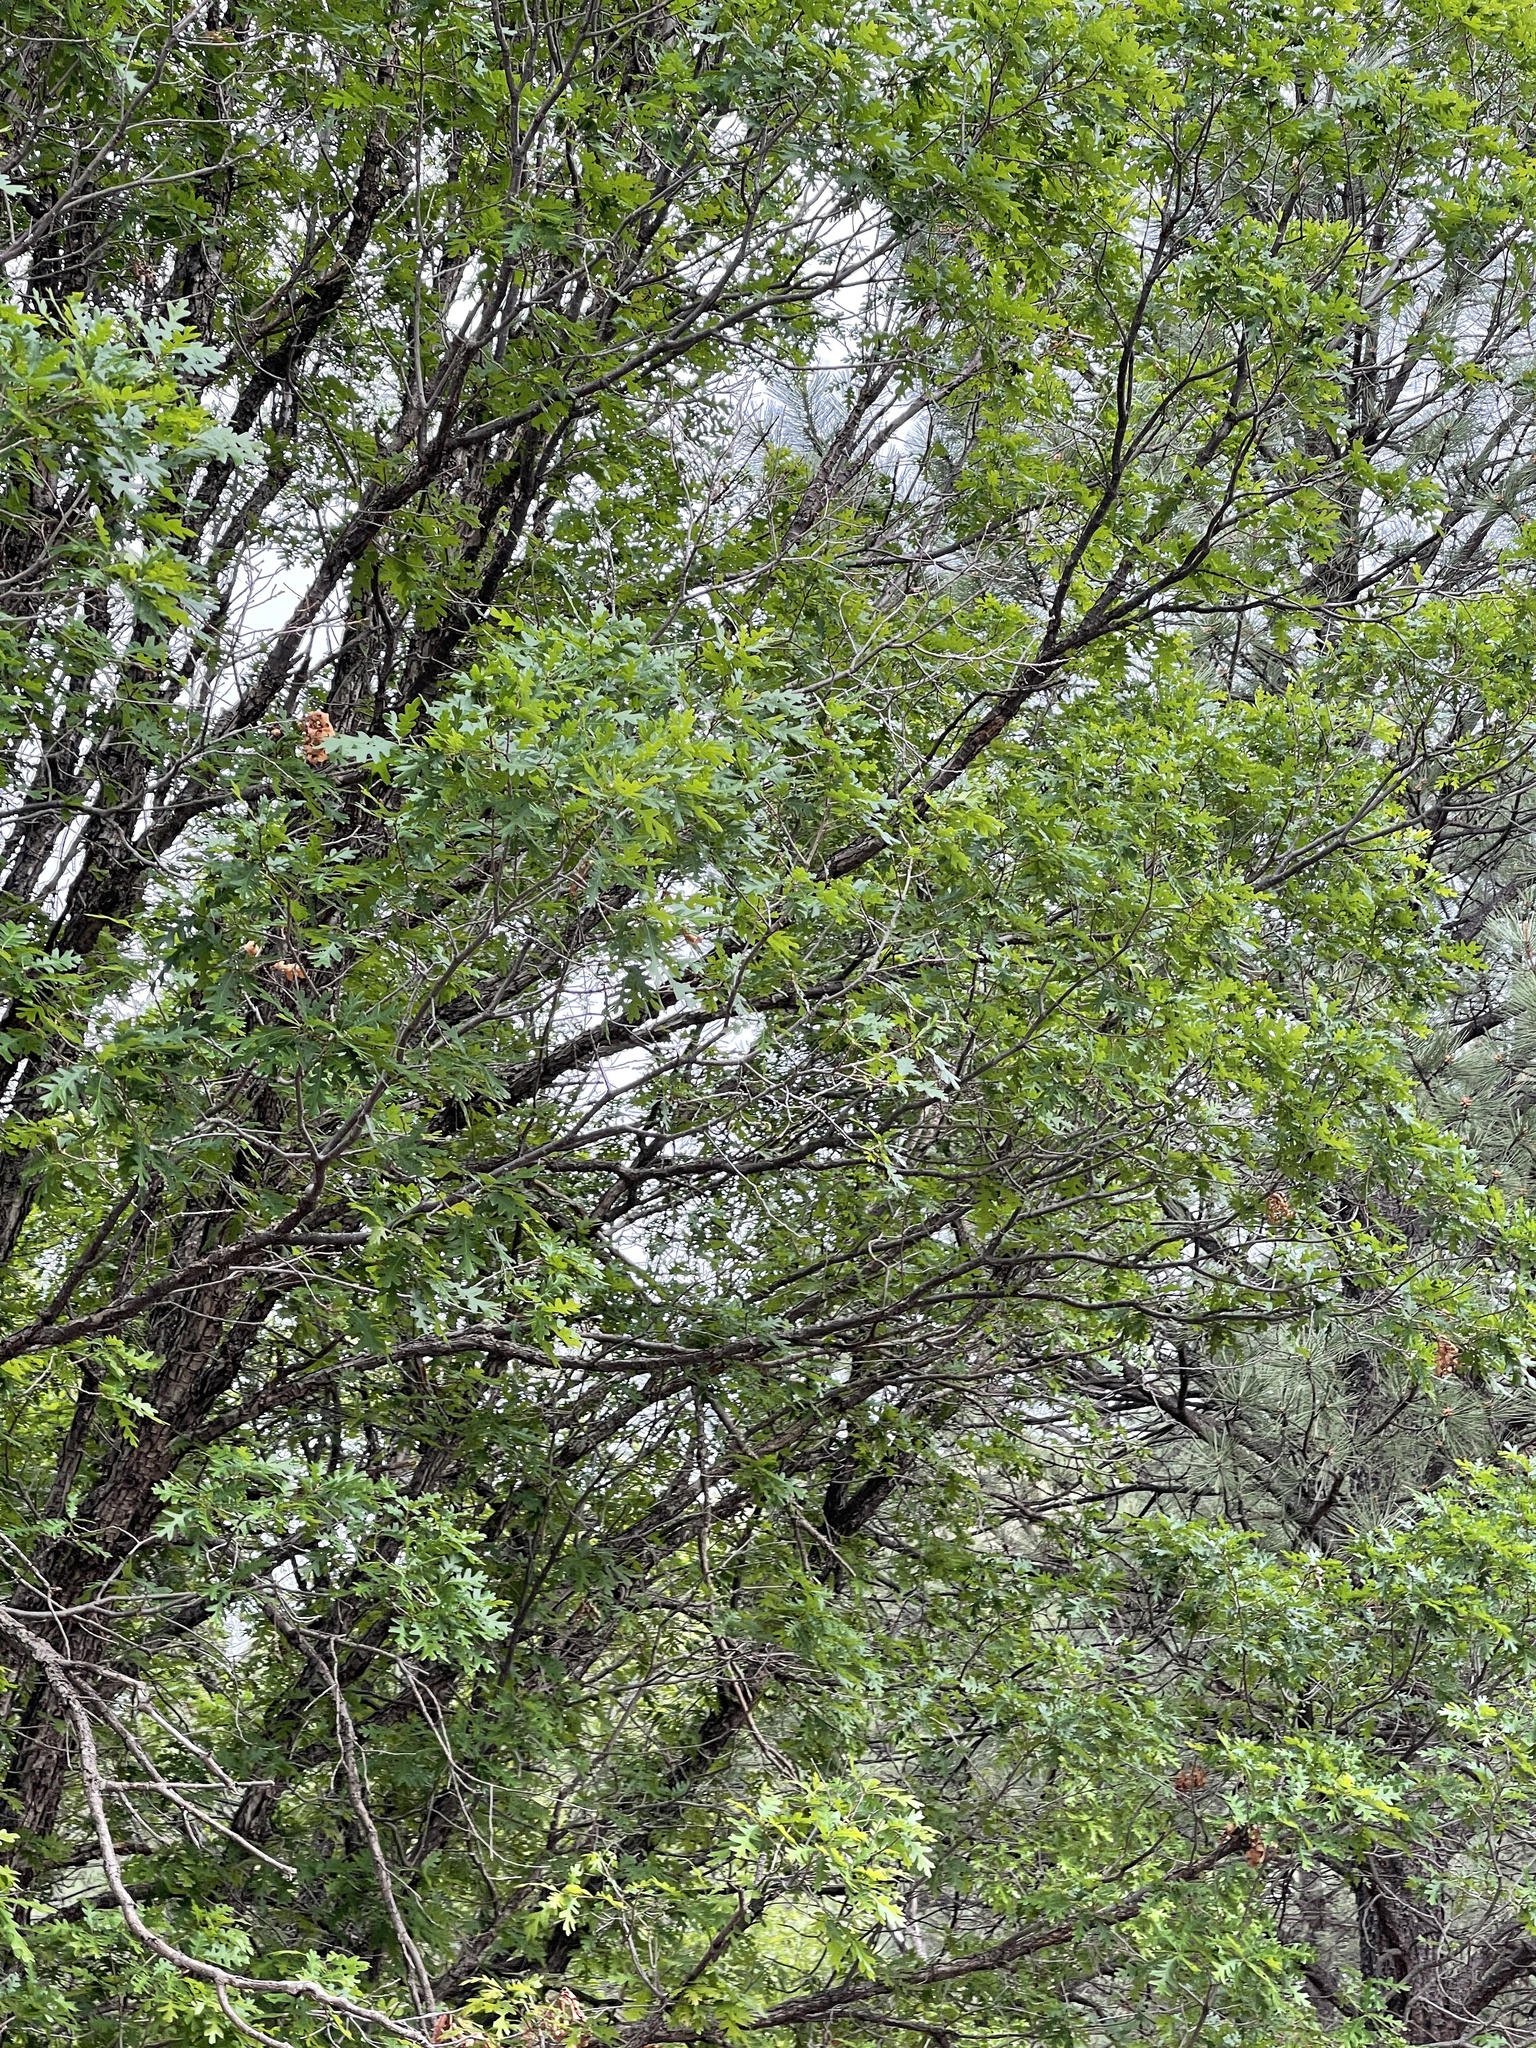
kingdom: Plantae
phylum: Tracheophyta
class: Magnoliopsida
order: Fagales
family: Fagaceae
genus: Quercus
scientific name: Quercus gambelii
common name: Gambel oak
